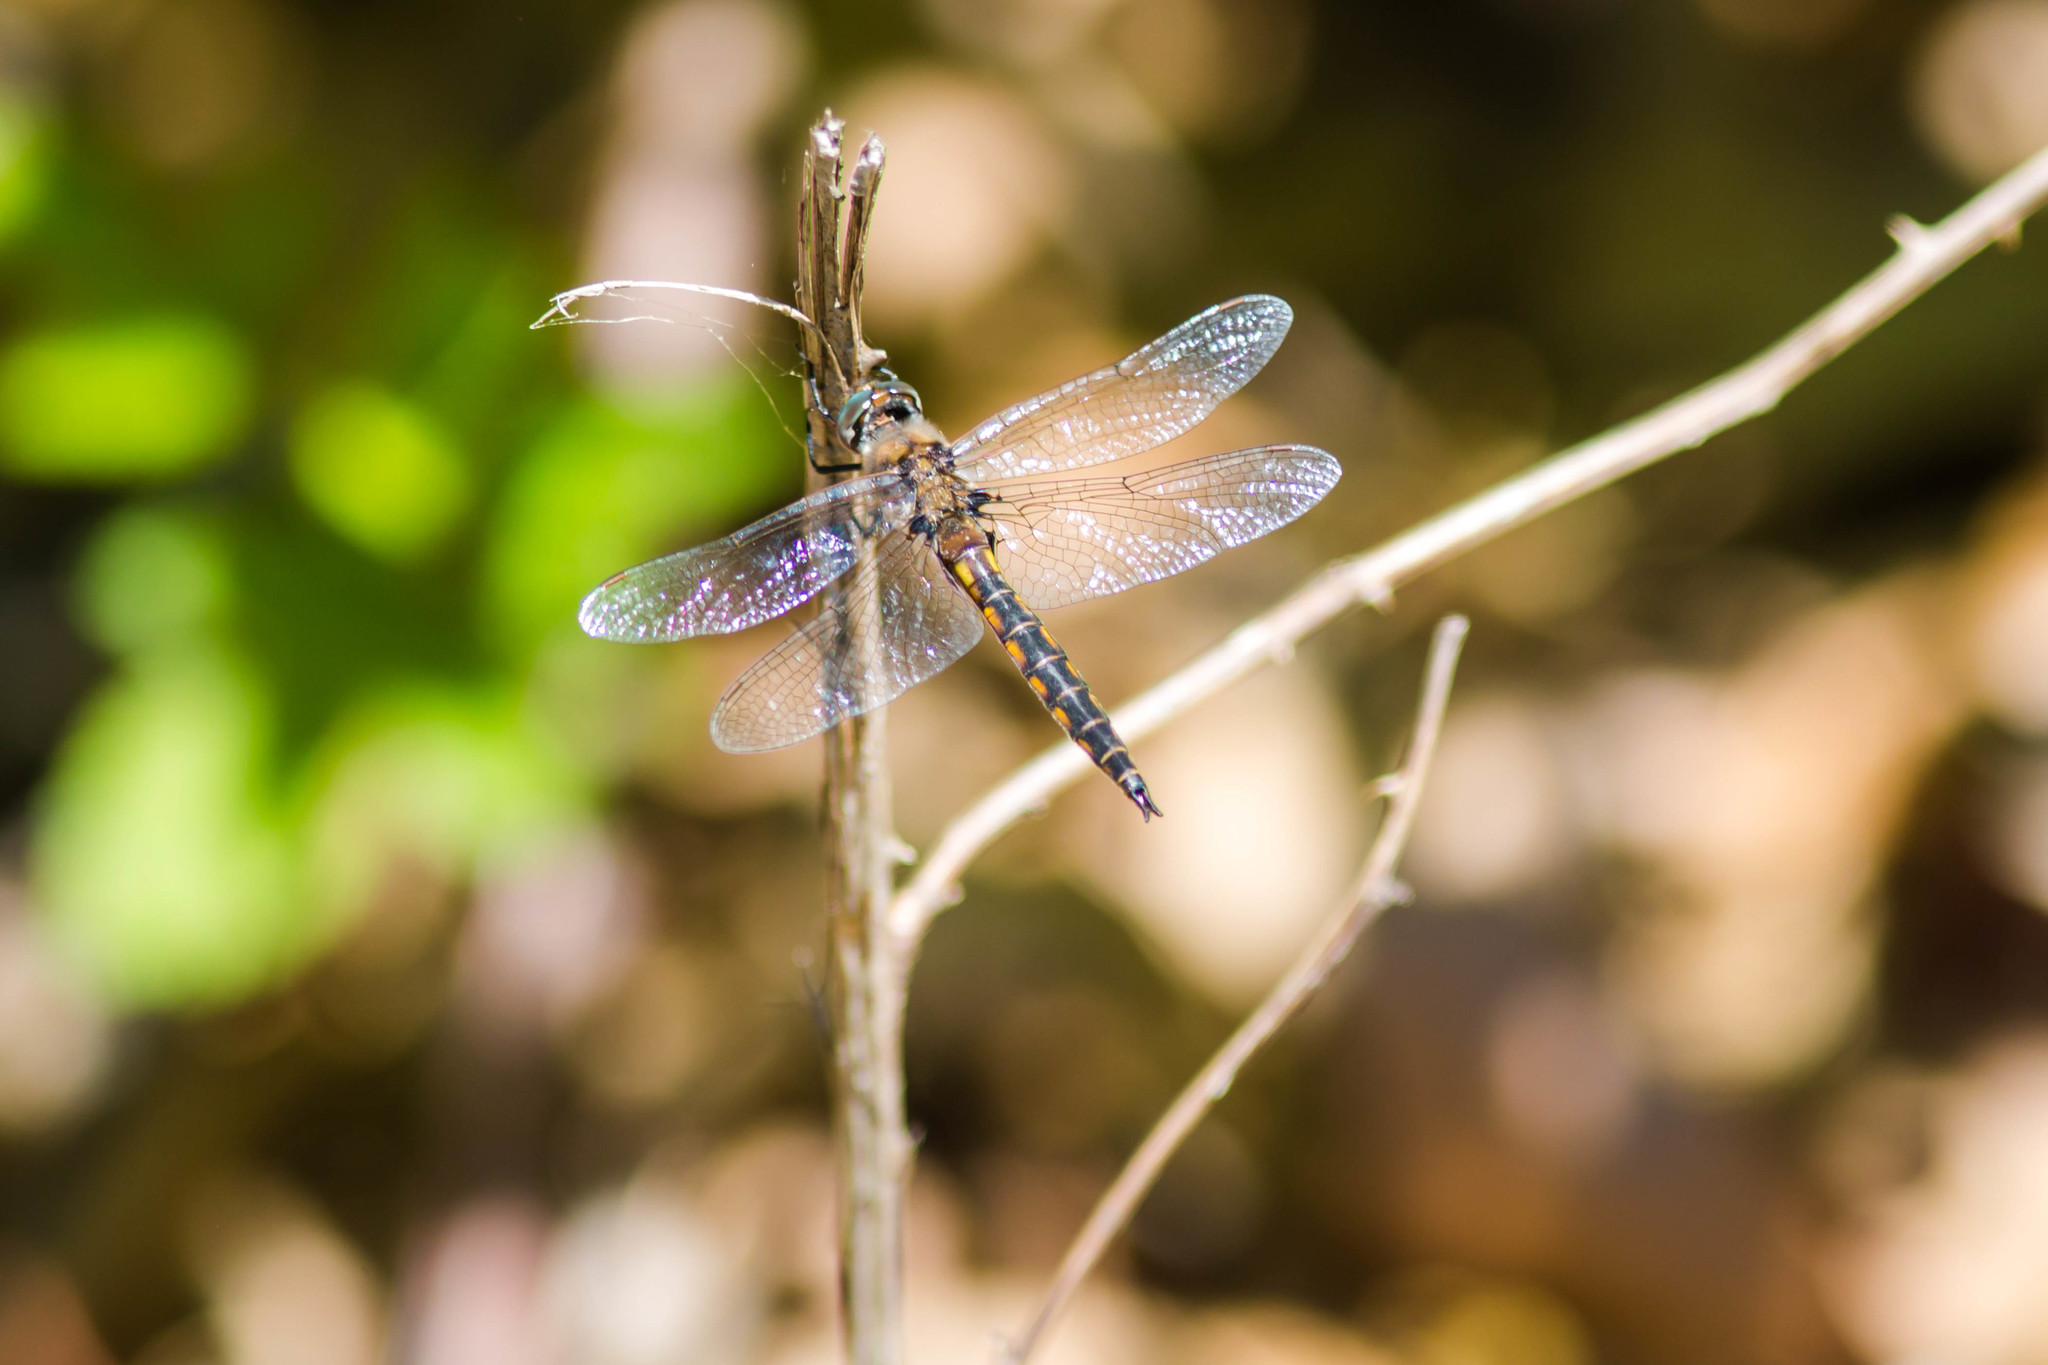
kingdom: Animalia
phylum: Arthropoda
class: Insecta
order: Odonata
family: Corduliidae
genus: Epitheca
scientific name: Epitheca cynosura
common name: Common baskettail
